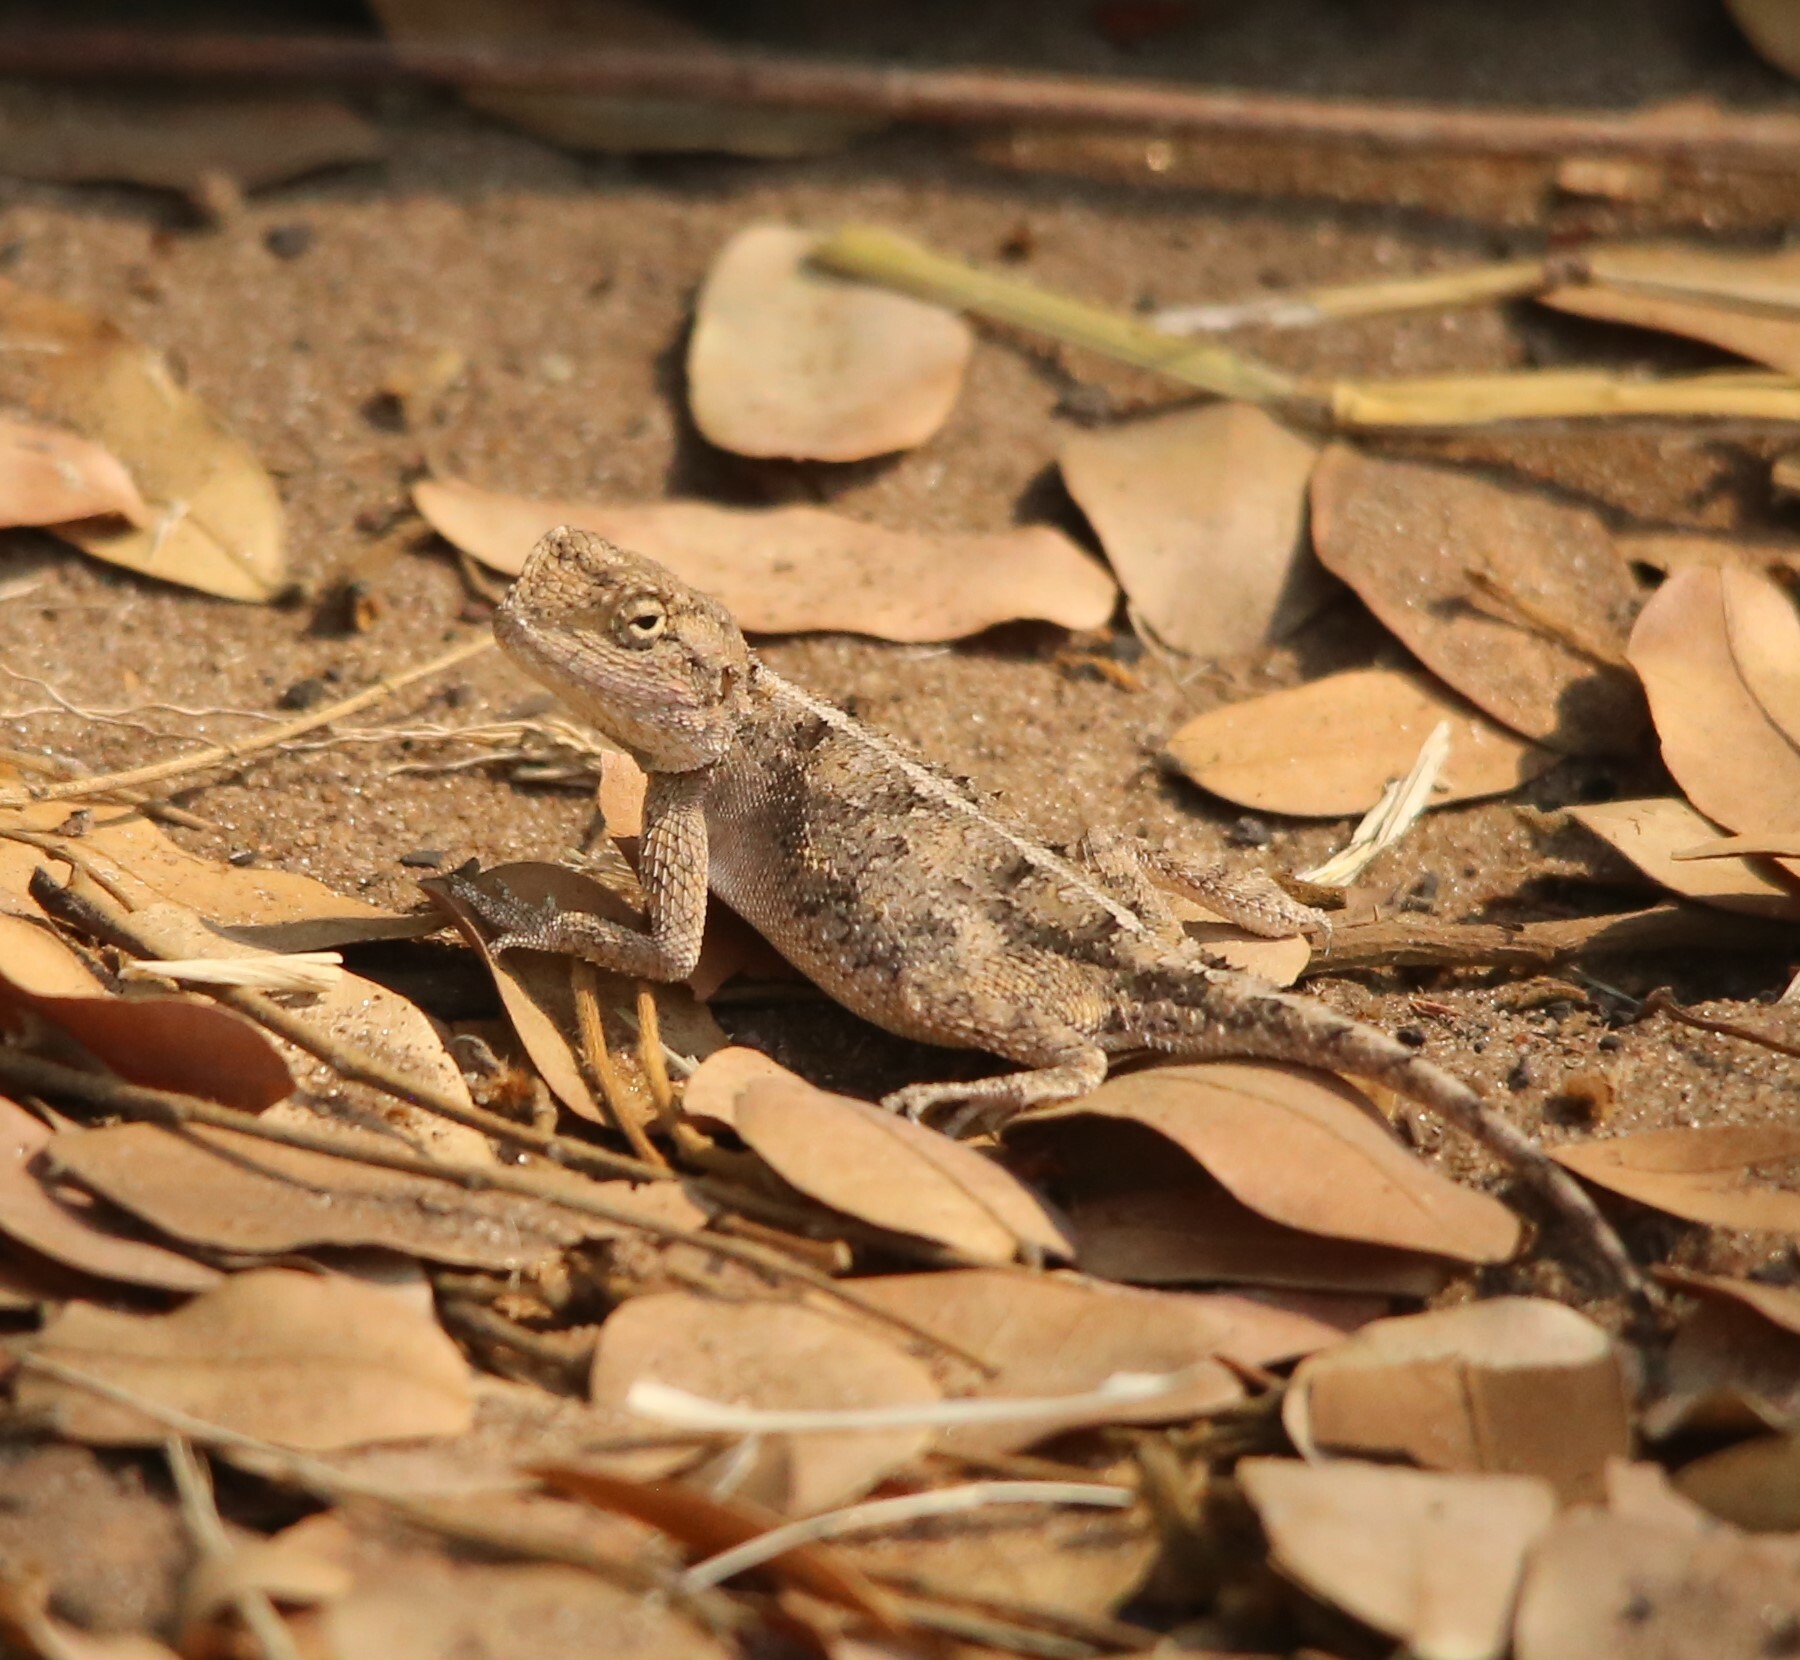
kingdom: Animalia
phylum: Chordata
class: Squamata
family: Agamidae
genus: Agama
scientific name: Agama armata
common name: Northern ground agama
